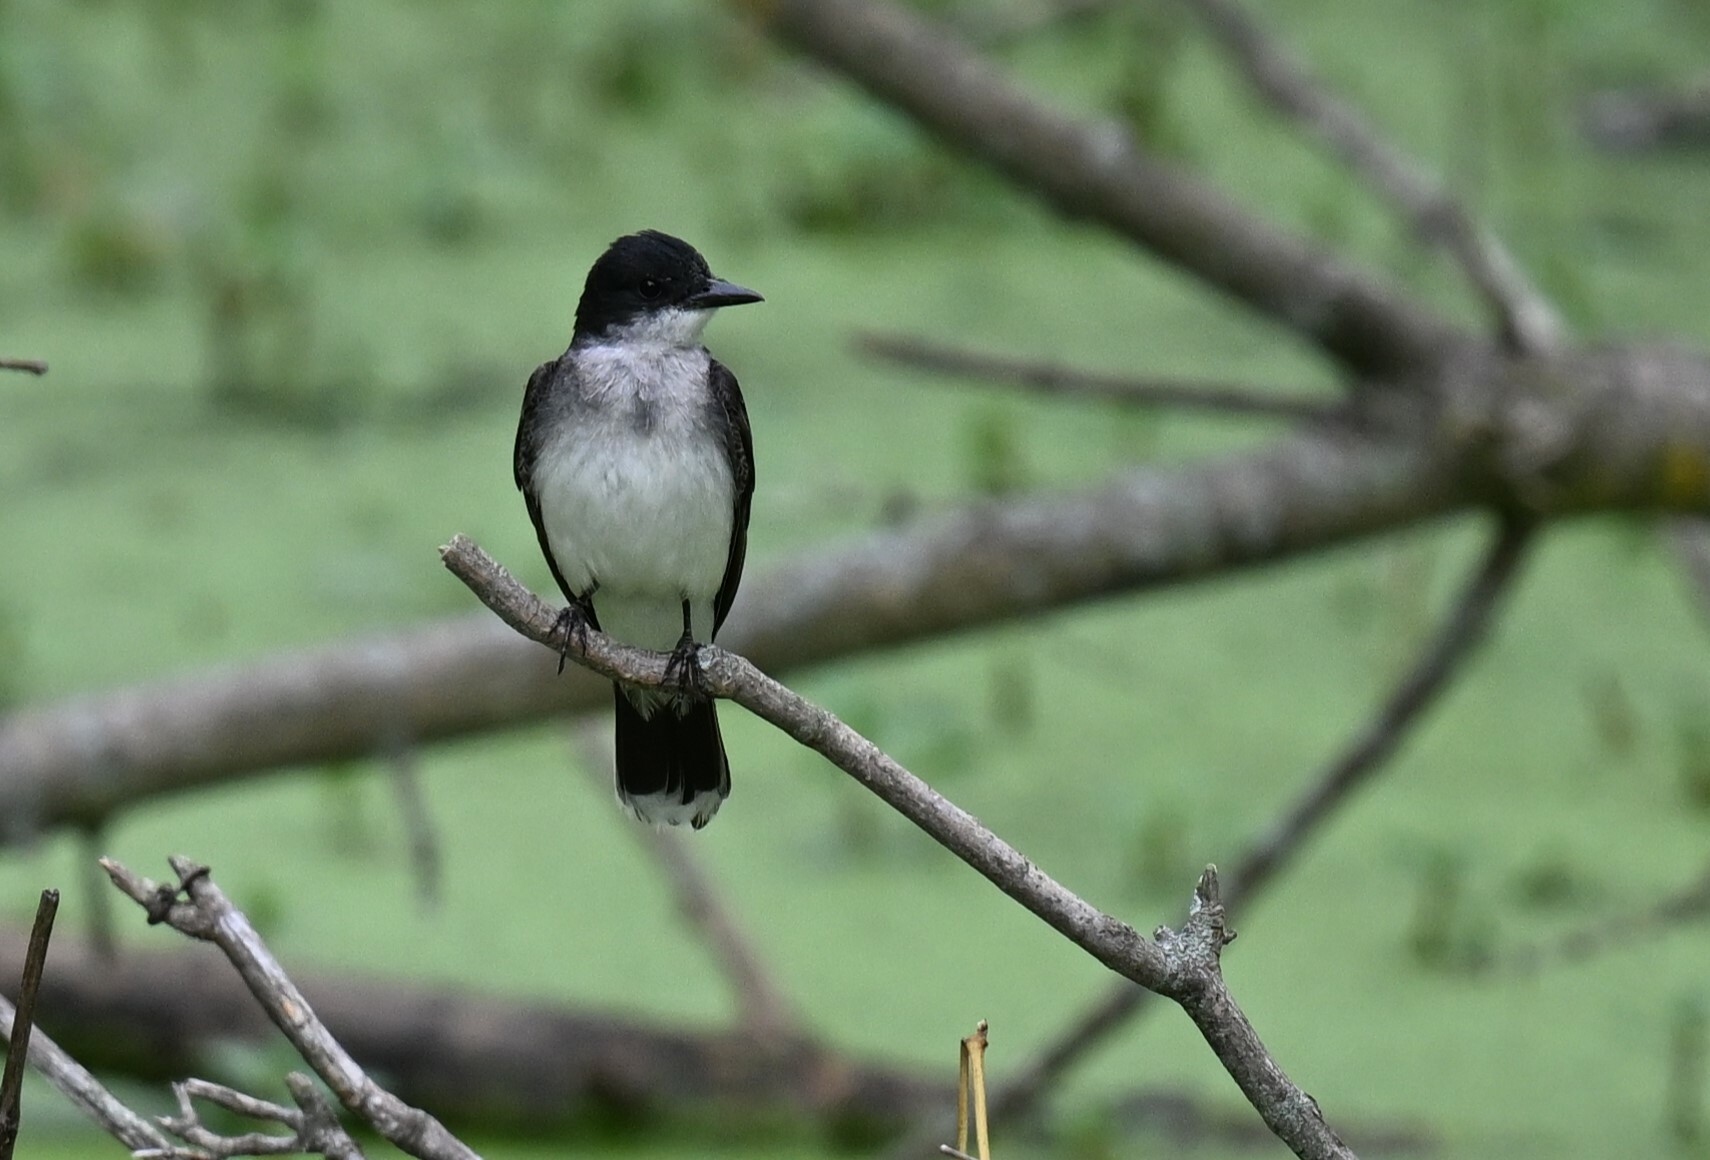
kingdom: Animalia
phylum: Chordata
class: Aves
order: Passeriformes
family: Tyrannidae
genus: Tyrannus
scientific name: Tyrannus tyrannus
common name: Eastern kingbird
